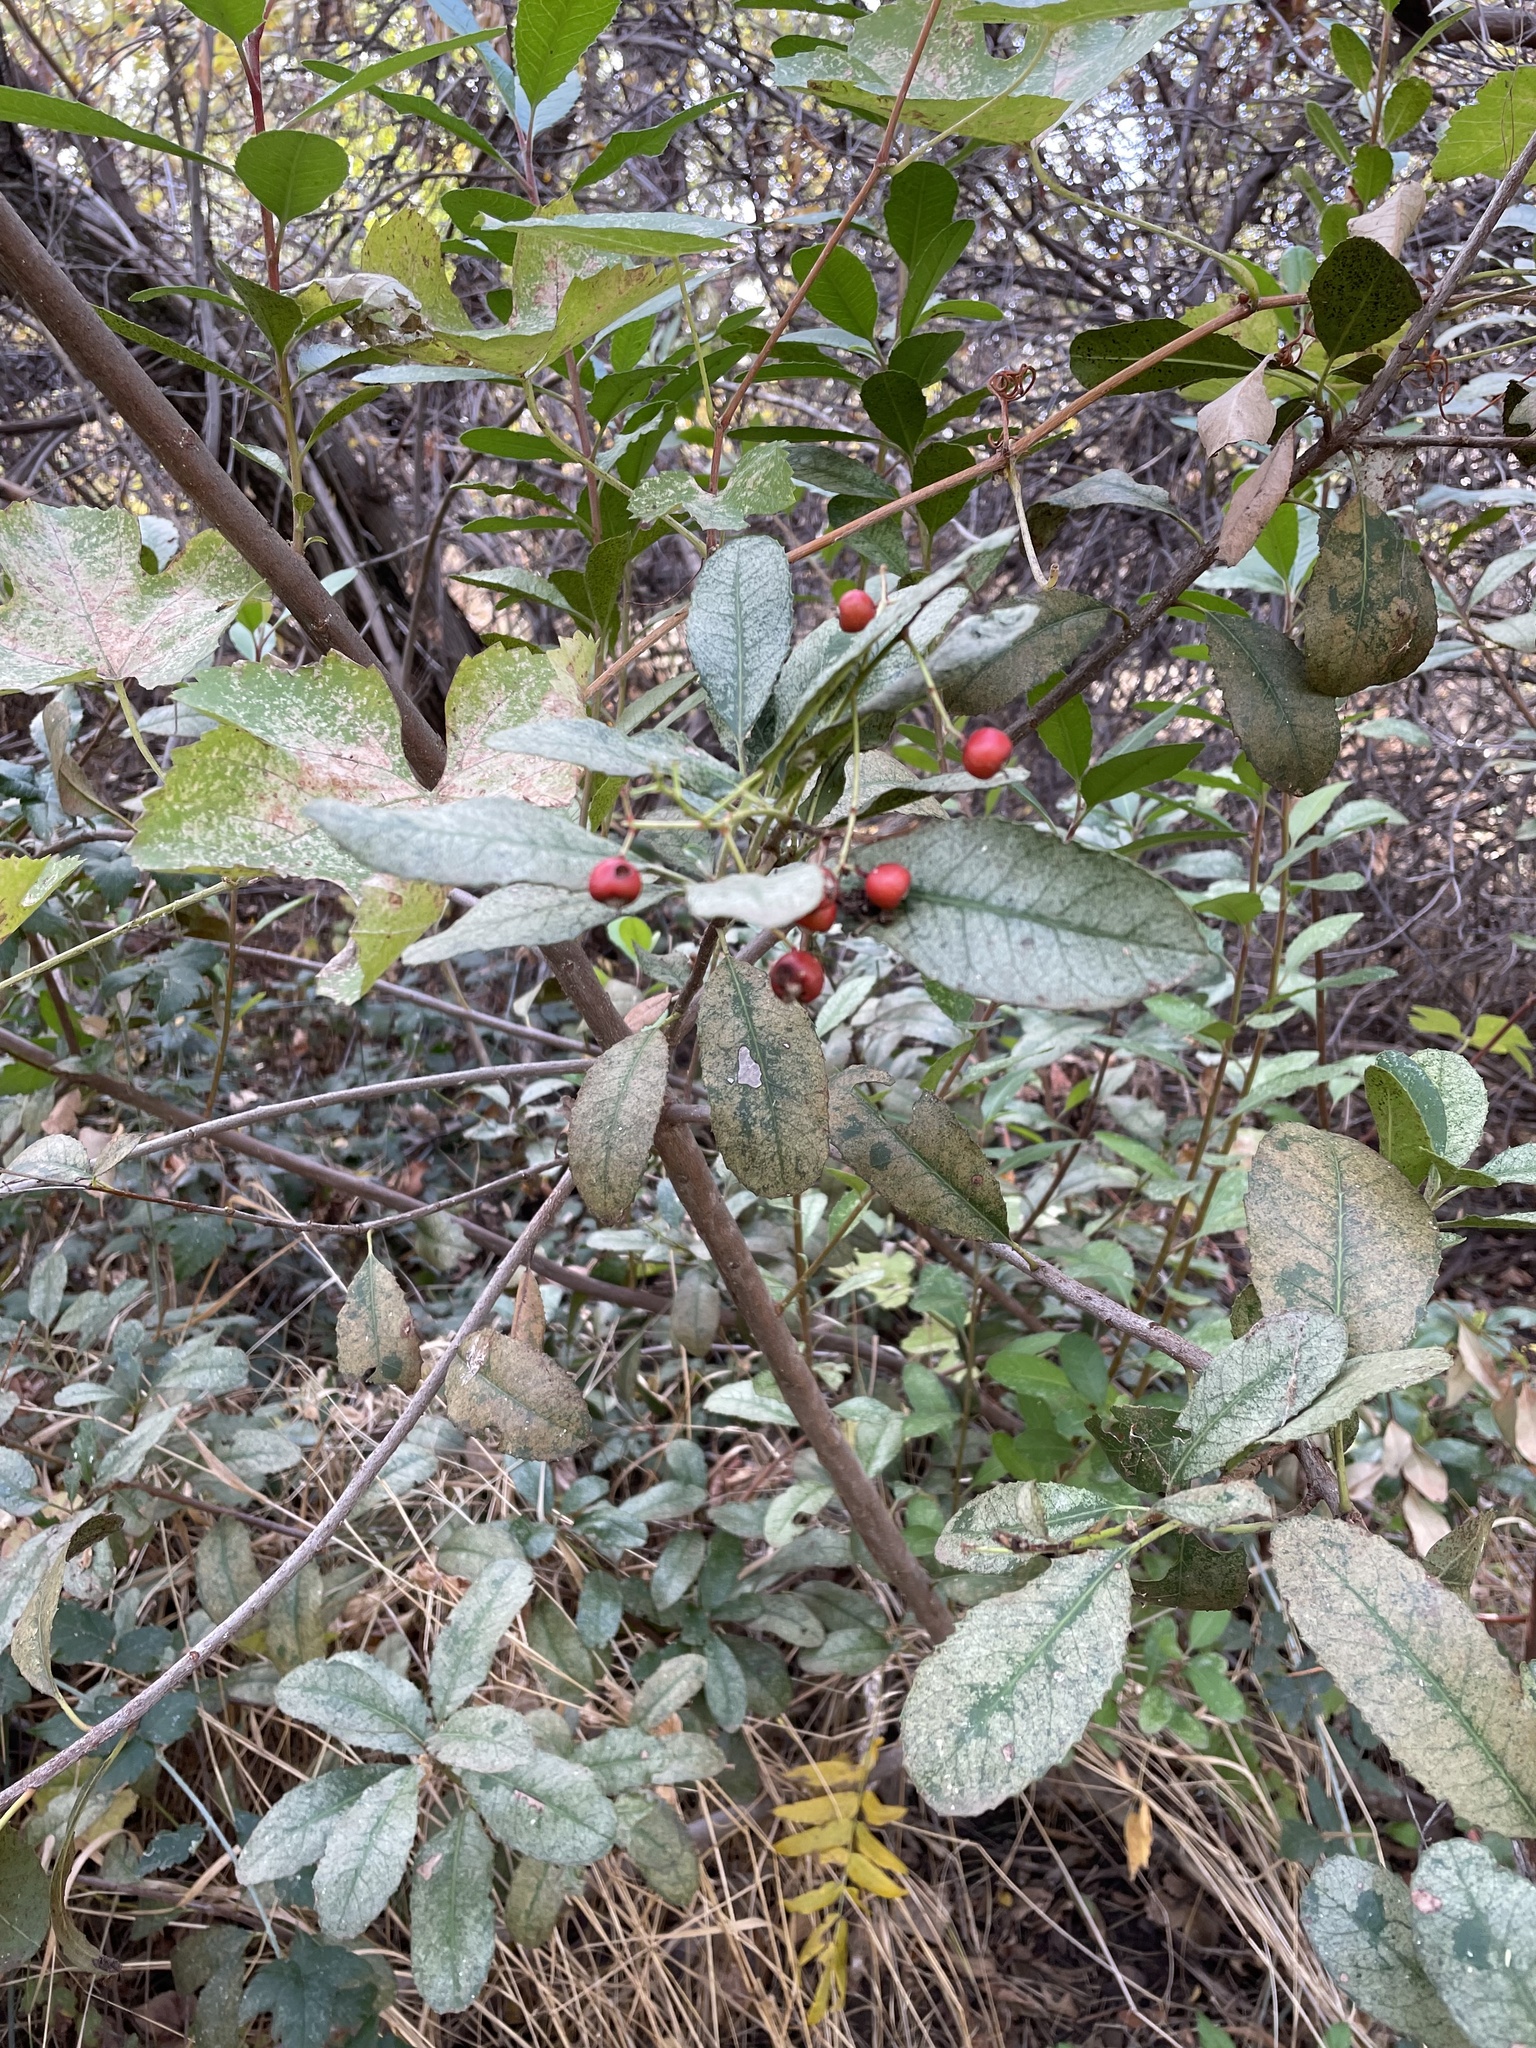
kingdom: Plantae
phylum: Tracheophyta
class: Magnoliopsida
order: Rosales
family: Rosaceae
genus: Heteromeles
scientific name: Heteromeles arbutifolia
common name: California-holly
